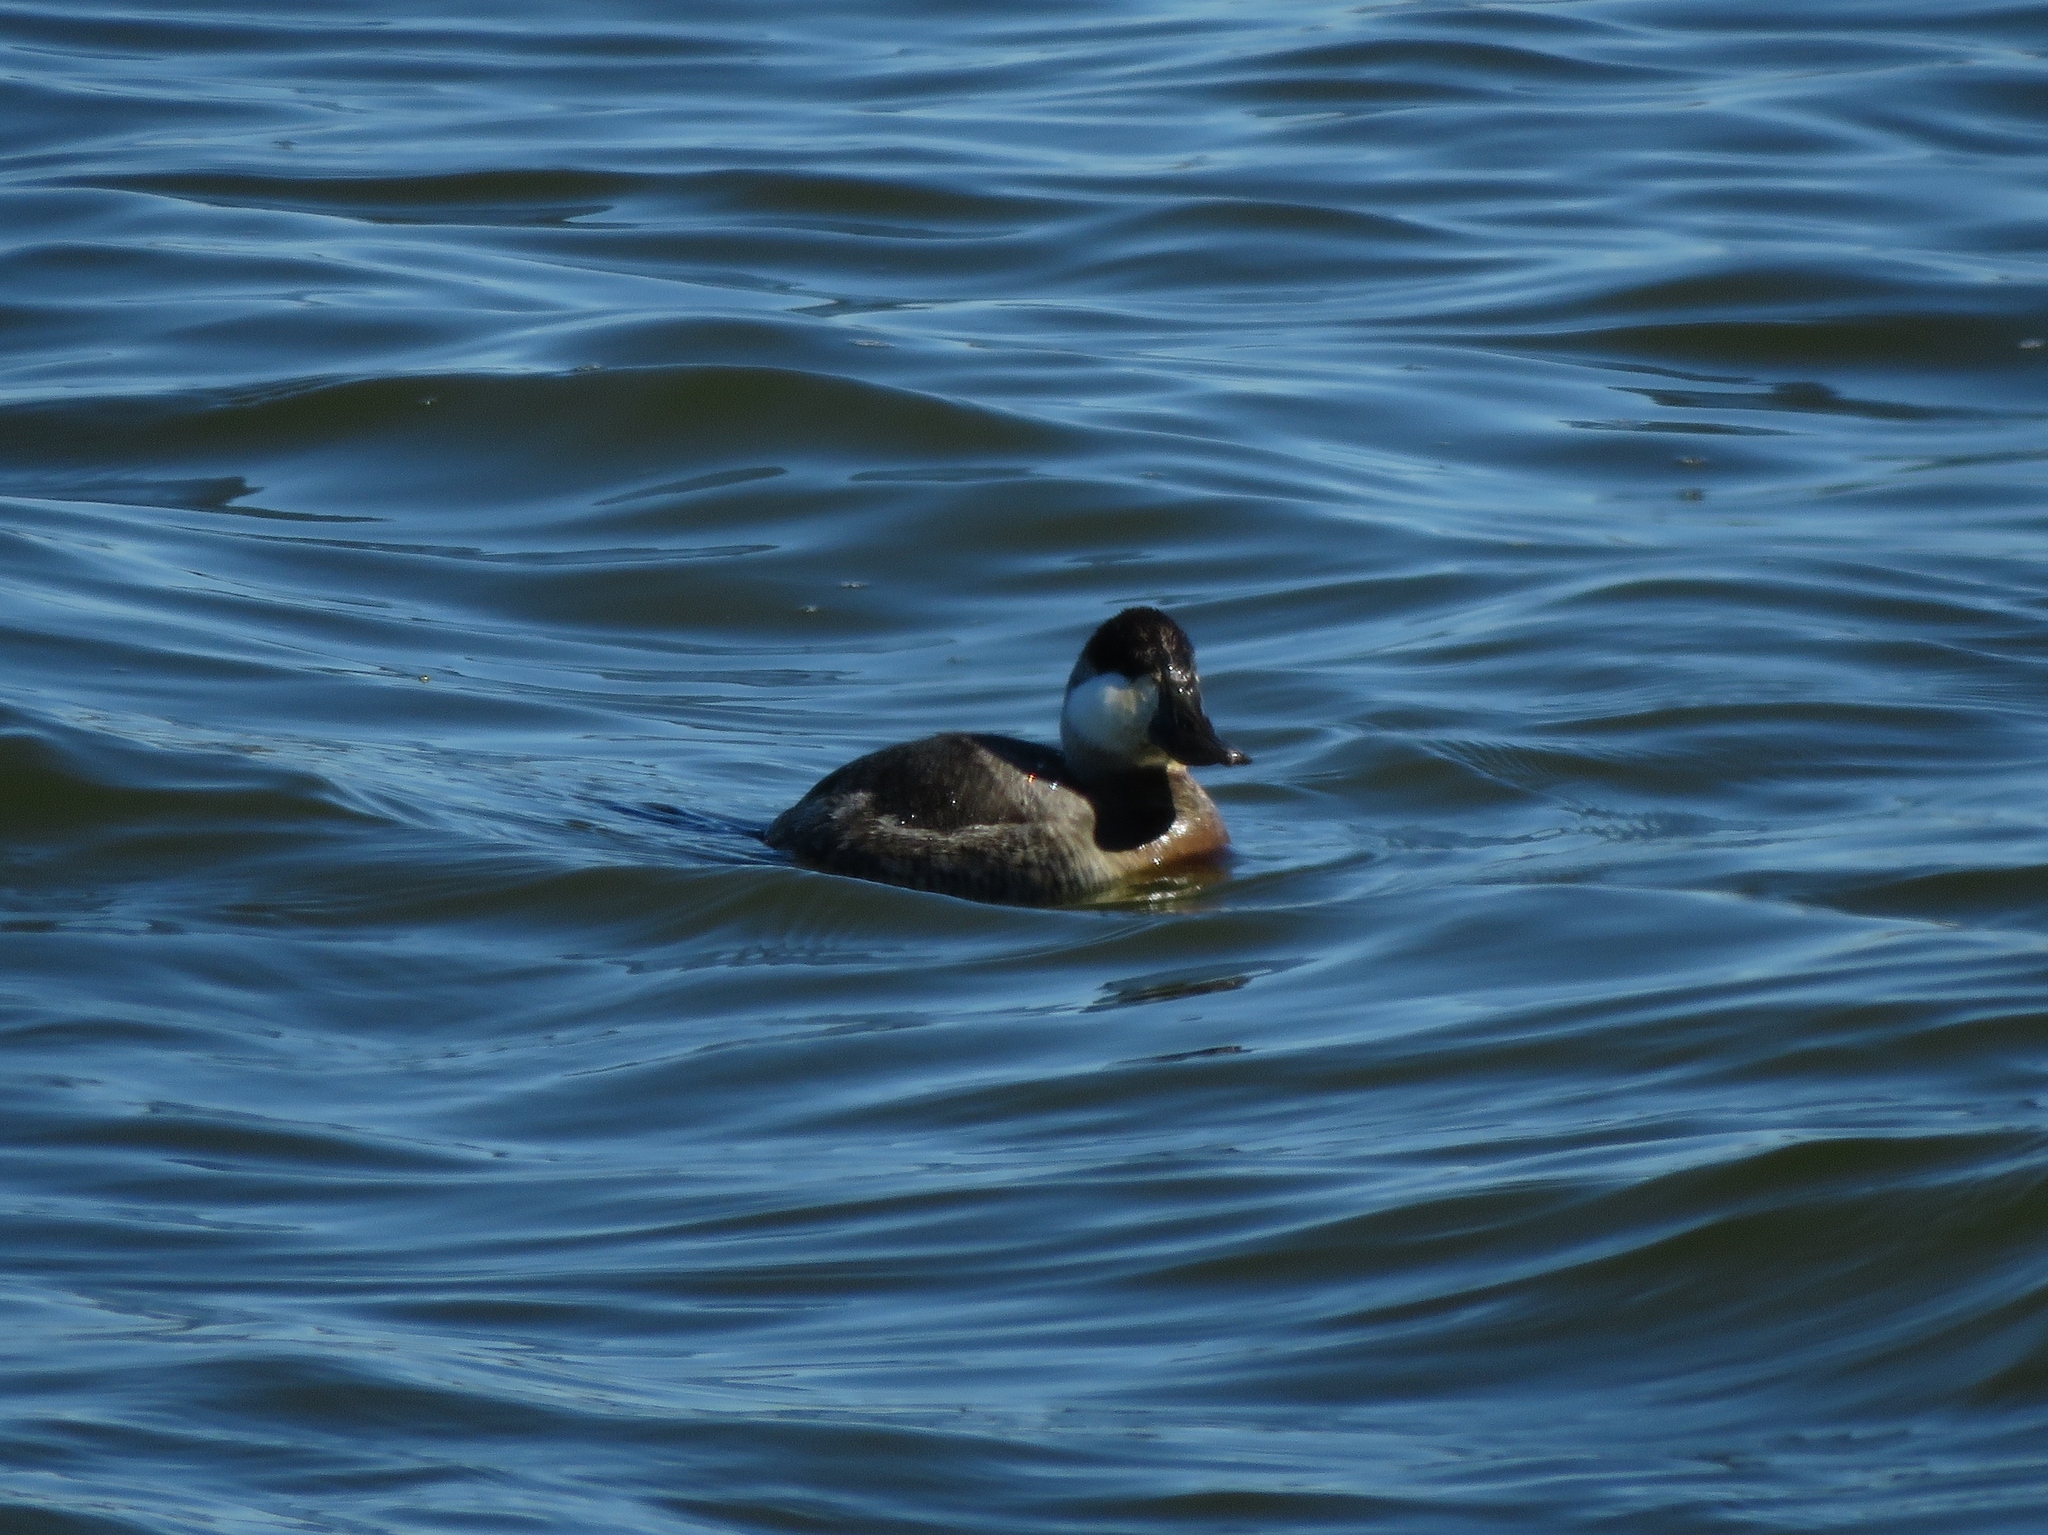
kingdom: Animalia
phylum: Chordata
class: Aves
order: Anseriformes
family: Anatidae
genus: Oxyura
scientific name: Oxyura jamaicensis
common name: Ruddy duck
